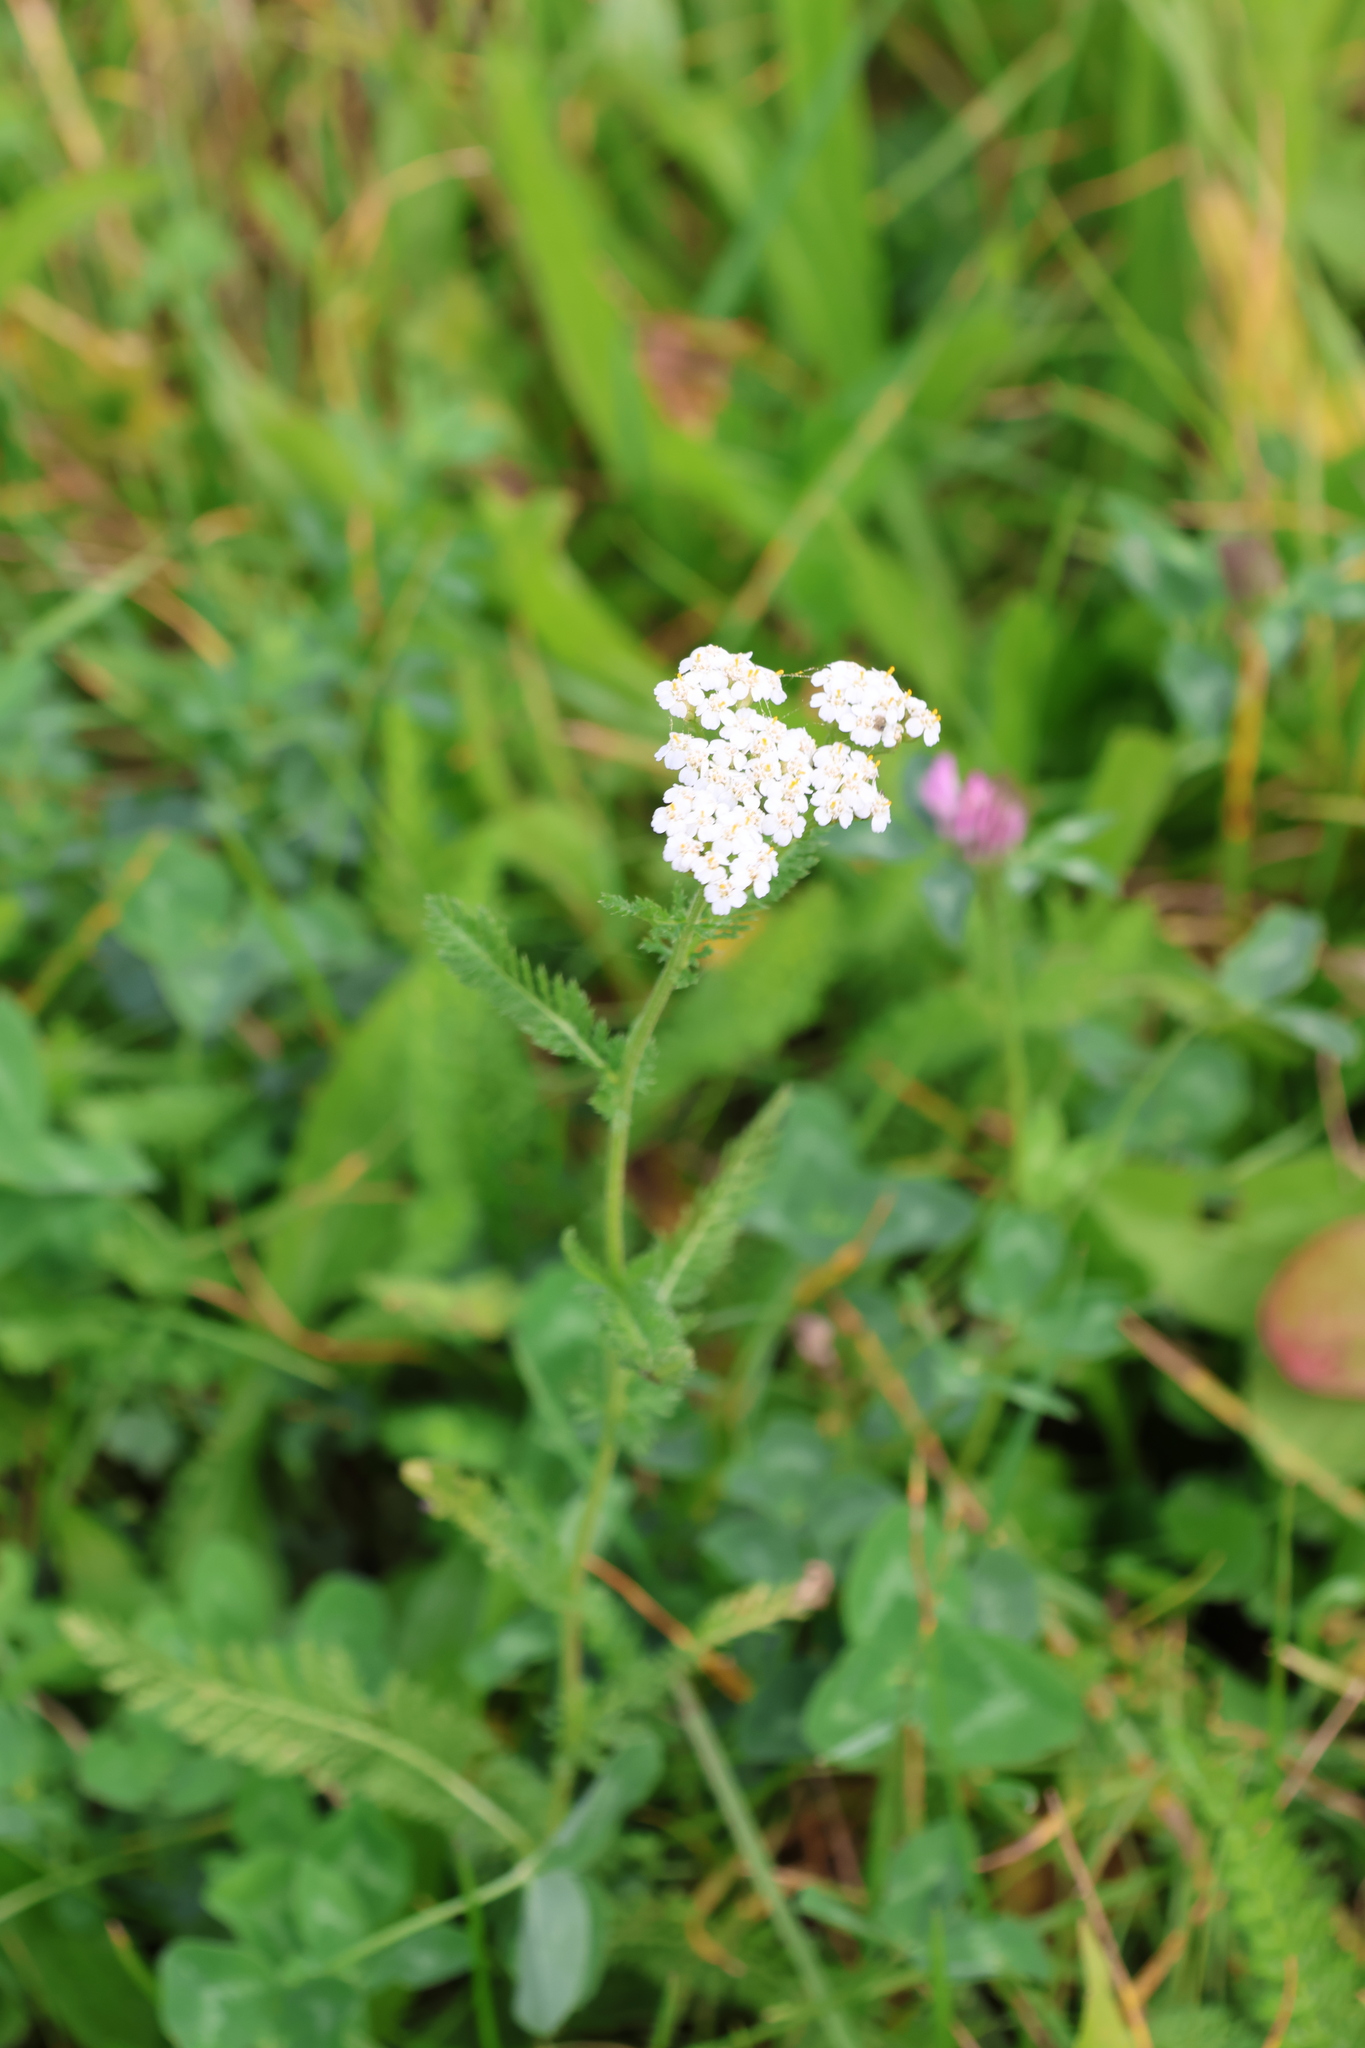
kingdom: Plantae
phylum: Tracheophyta
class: Magnoliopsida
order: Asterales
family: Asteraceae
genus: Achillea
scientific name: Achillea millefolium
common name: Yarrow
